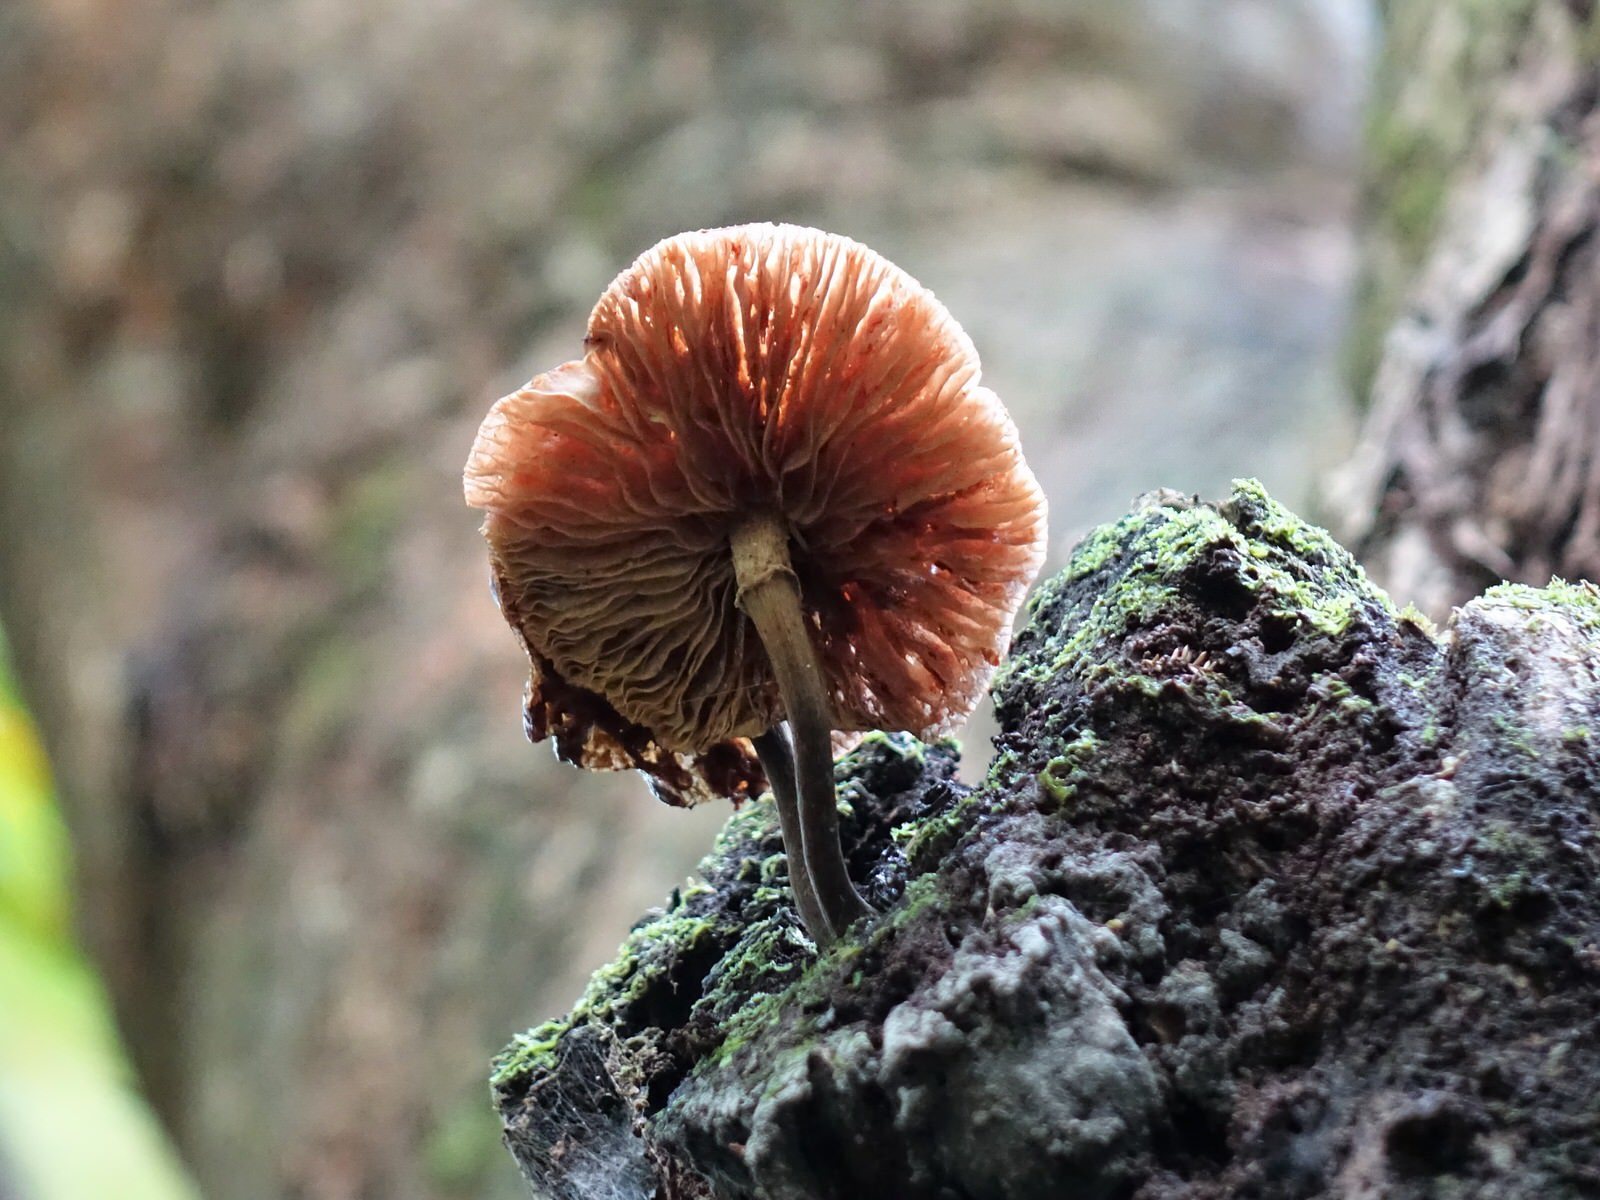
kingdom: Fungi
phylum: Basidiomycota
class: Agaricomycetes
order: Agaricales
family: Physalacriaceae
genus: Armillaria
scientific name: Armillaria novae-zelandiae
